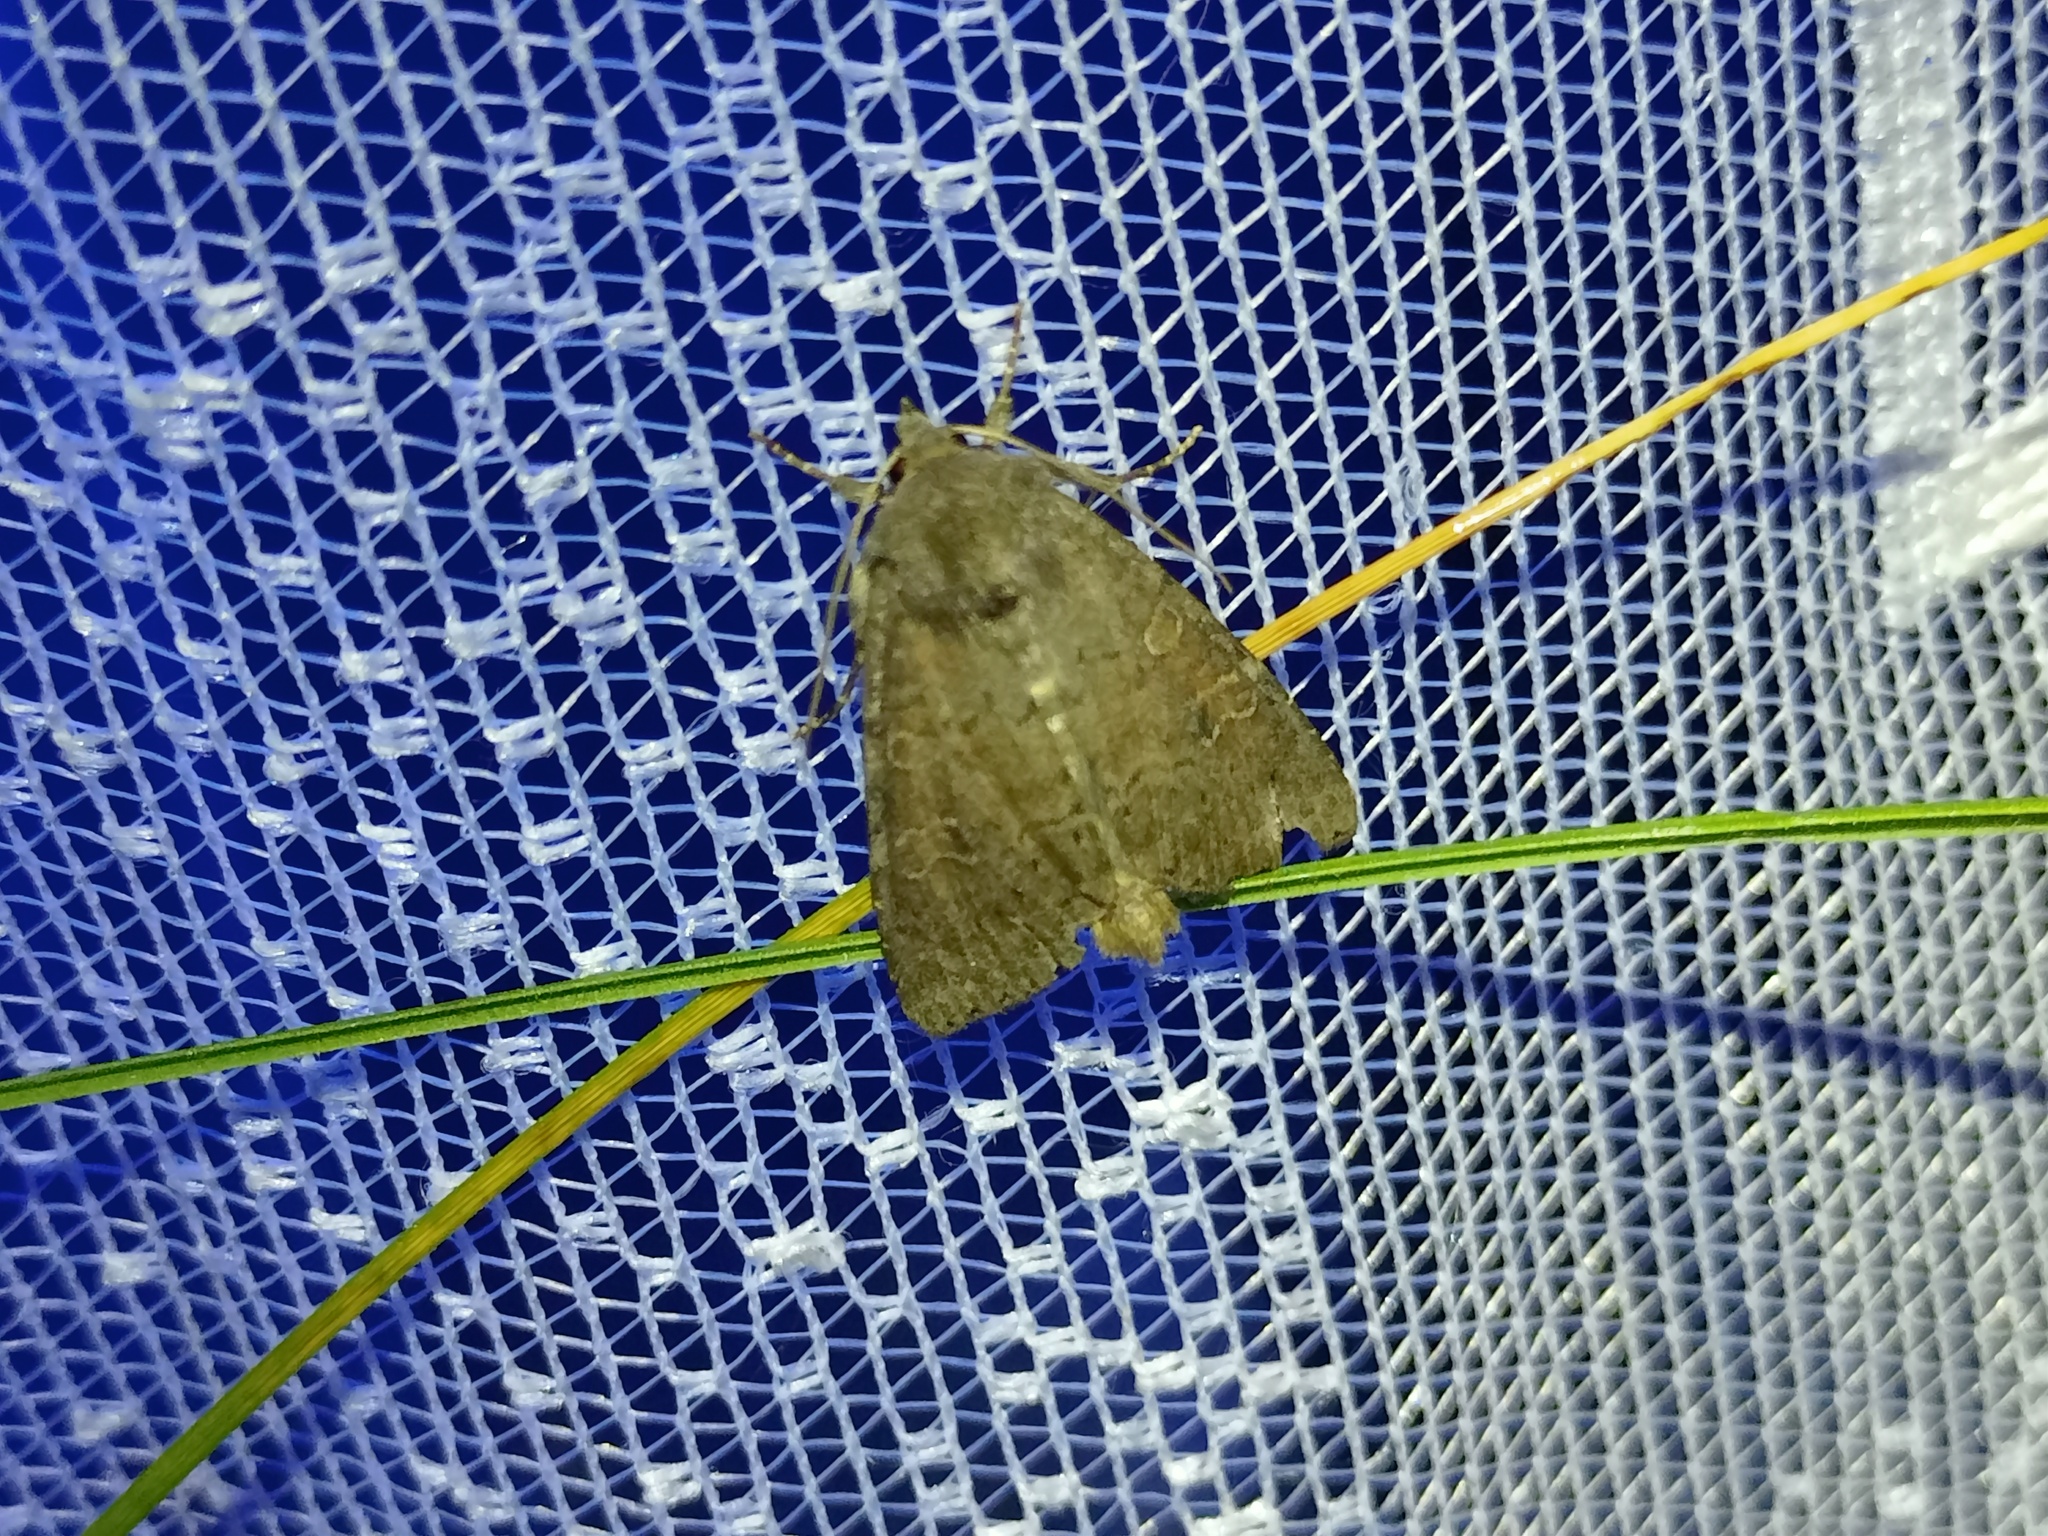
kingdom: Animalia
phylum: Arthropoda
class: Insecta
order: Lepidoptera
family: Noctuidae
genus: Parastichtis
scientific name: Parastichtis suspecta
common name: Suspected
